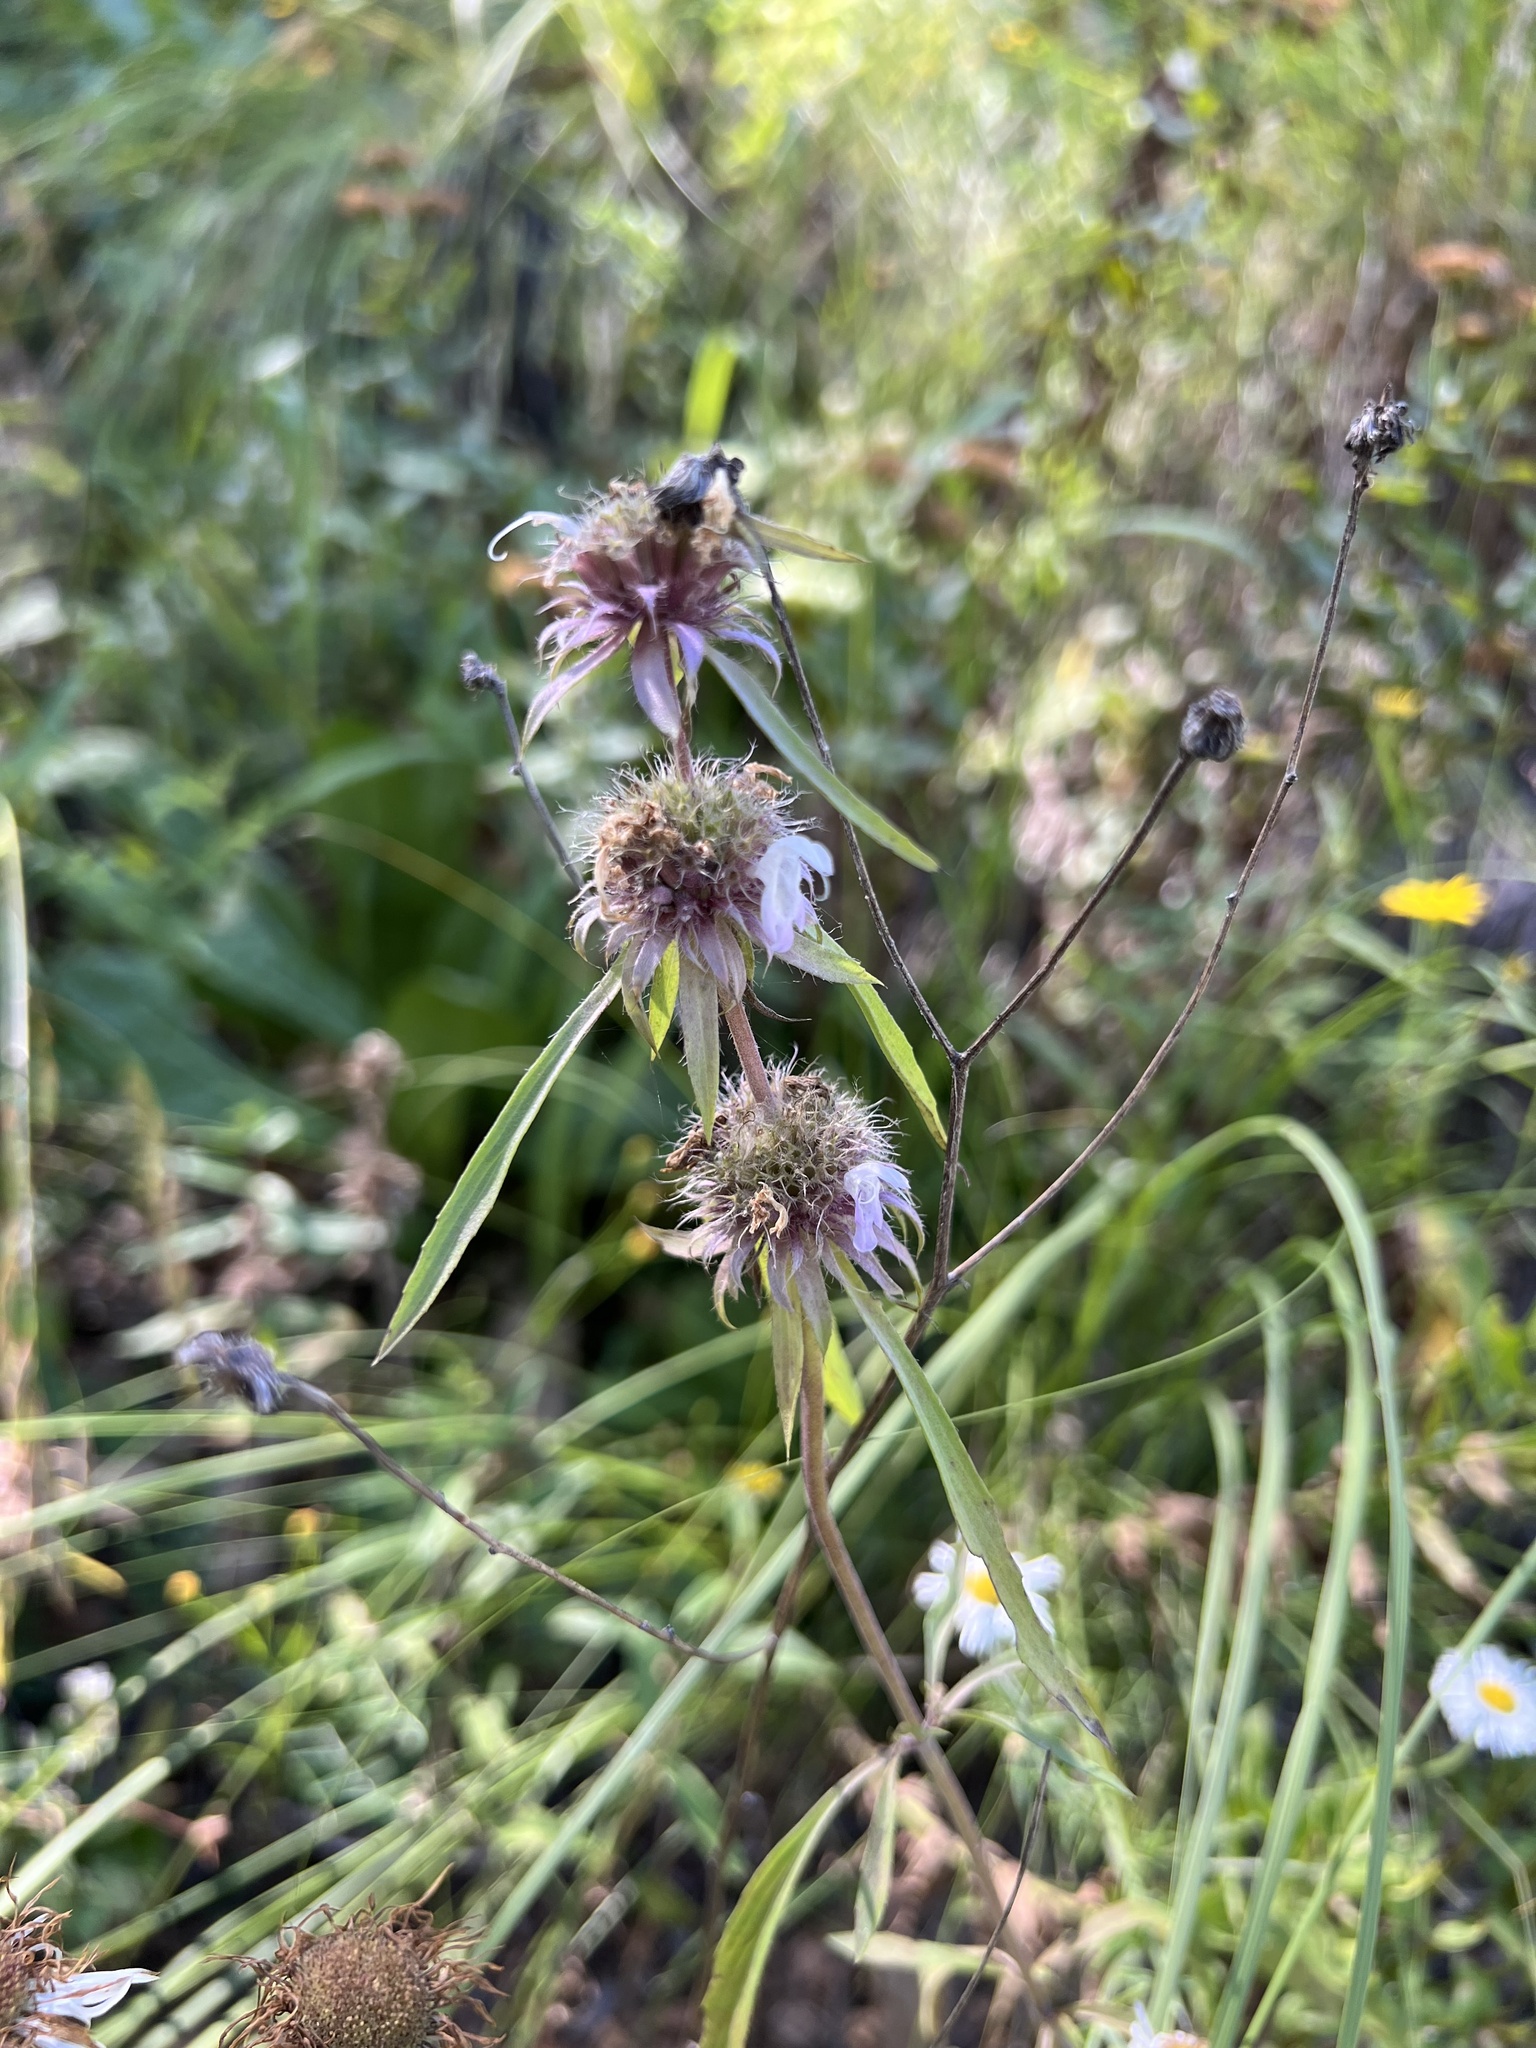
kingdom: Plantae
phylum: Tracheophyta
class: Magnoliopsida
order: Lamiales
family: Lamiaceae
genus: Monarda
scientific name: Monarda pectinata
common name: Plains beebalm
